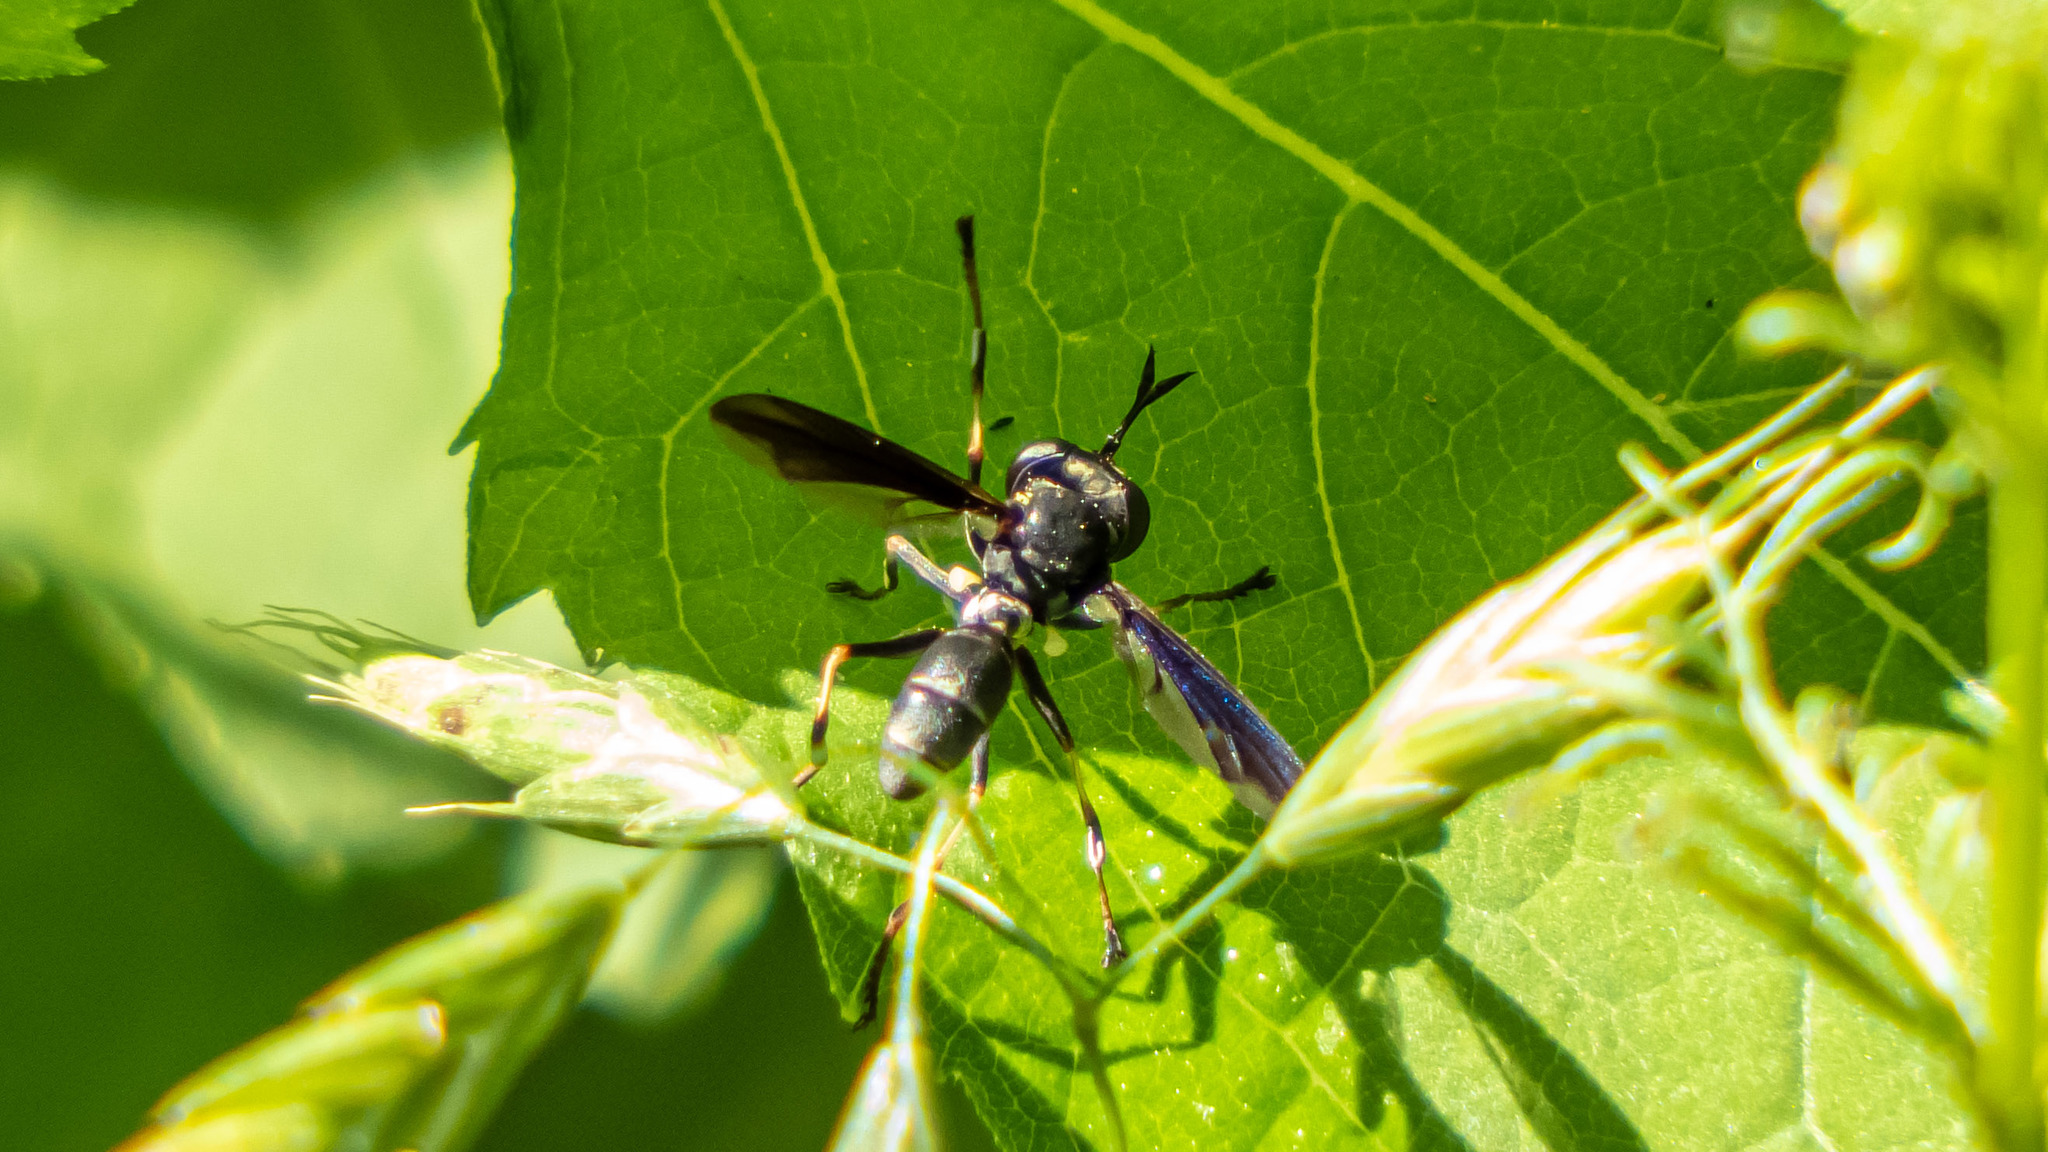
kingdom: Animalia
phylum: Arthropoda
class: Insecta
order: Diptera
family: Conopidae
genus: Physocephala
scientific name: Physocephala tibialis
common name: Common eastern physocephala
